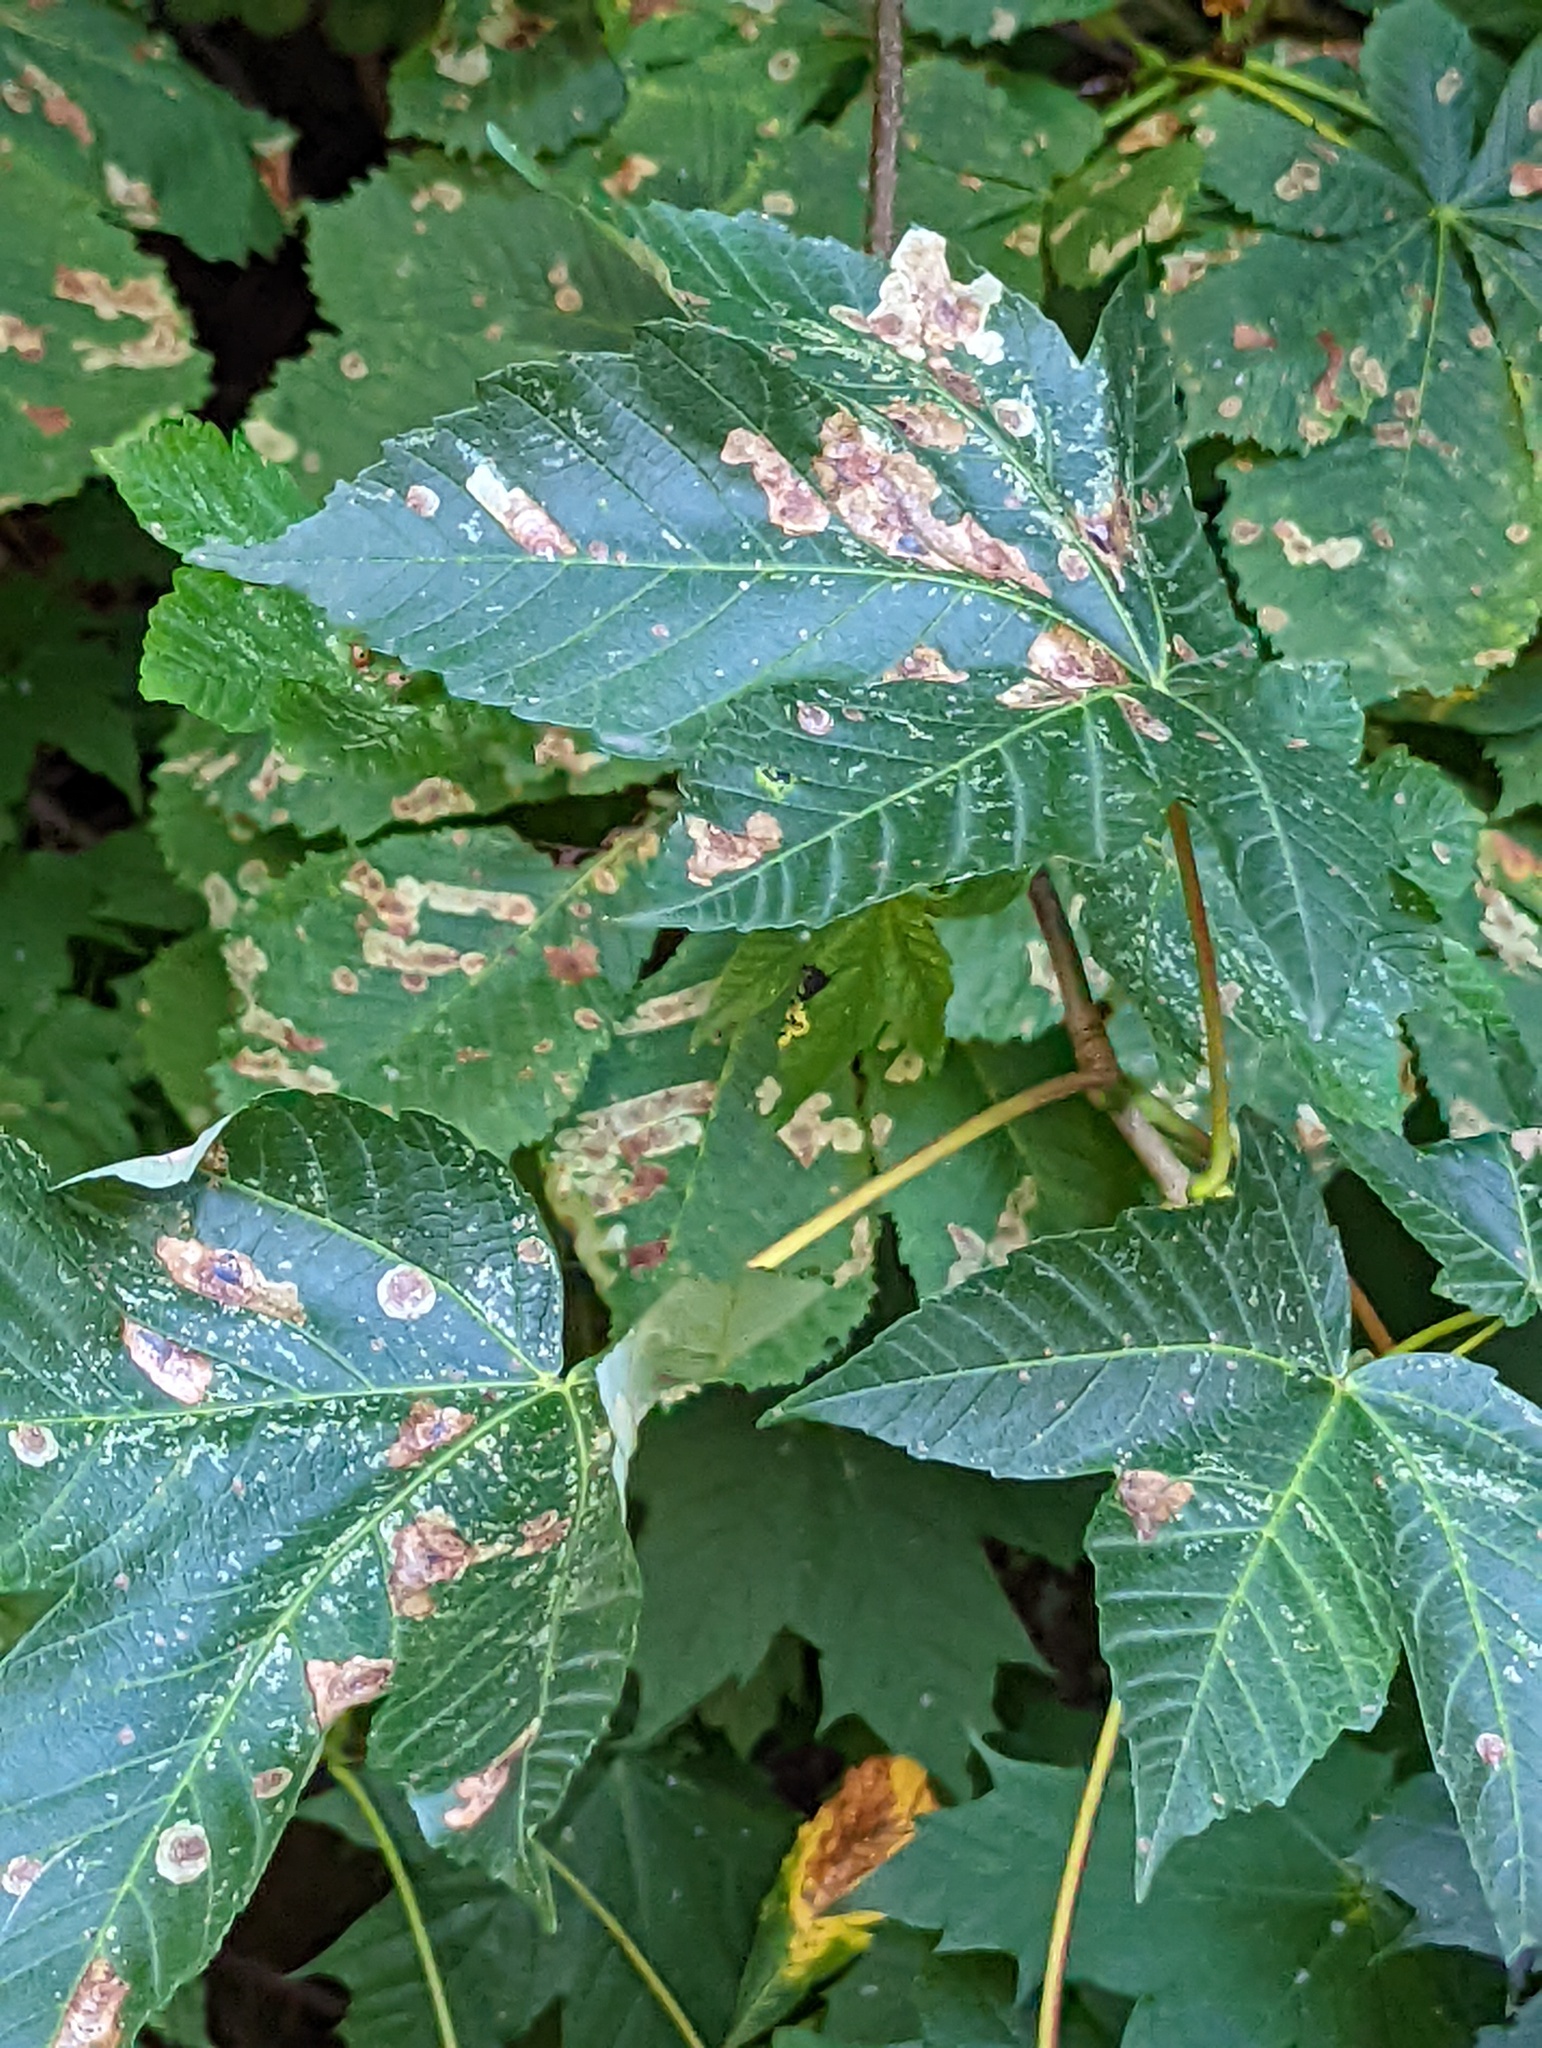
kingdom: Animalia
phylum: Arthropoda
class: Insecta
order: Lepidoptera
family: Gracillariidae
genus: Cameraria
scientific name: Cameraria ohridella
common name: Horse-chestnut leaf-miner
